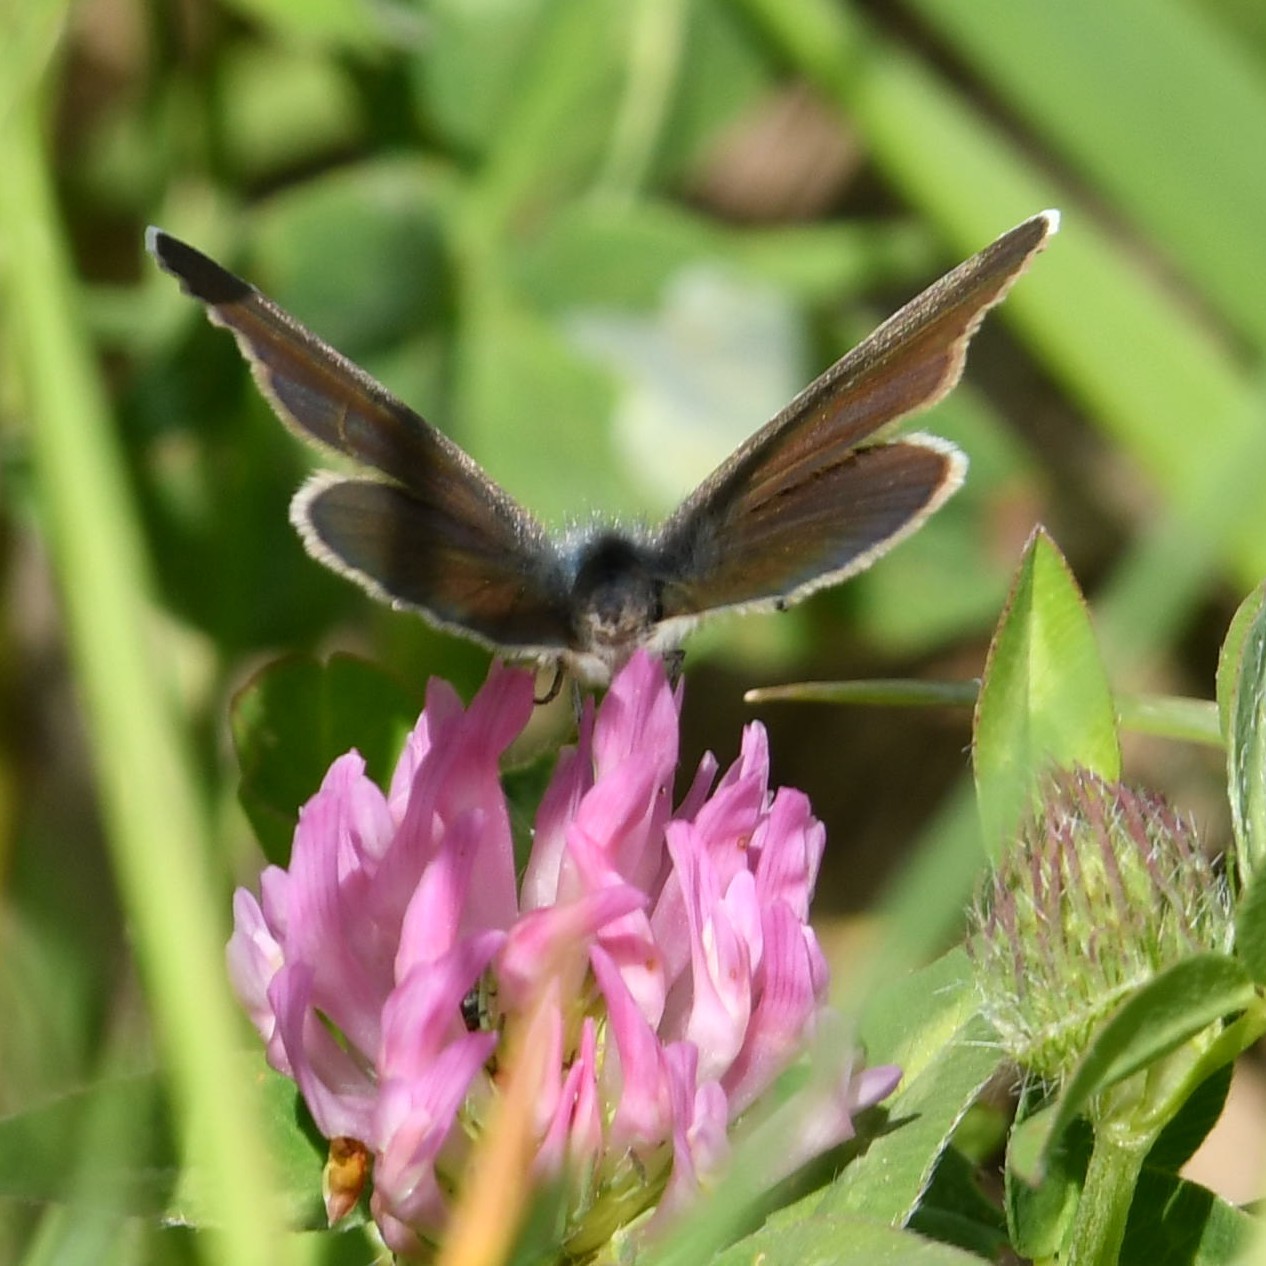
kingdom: Animalia
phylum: Arthropoda
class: Insecta
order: Lepidoptera
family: Lycaenidae
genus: Cyaniris
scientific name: Cyaniris semiargus
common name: Mazarine blue
